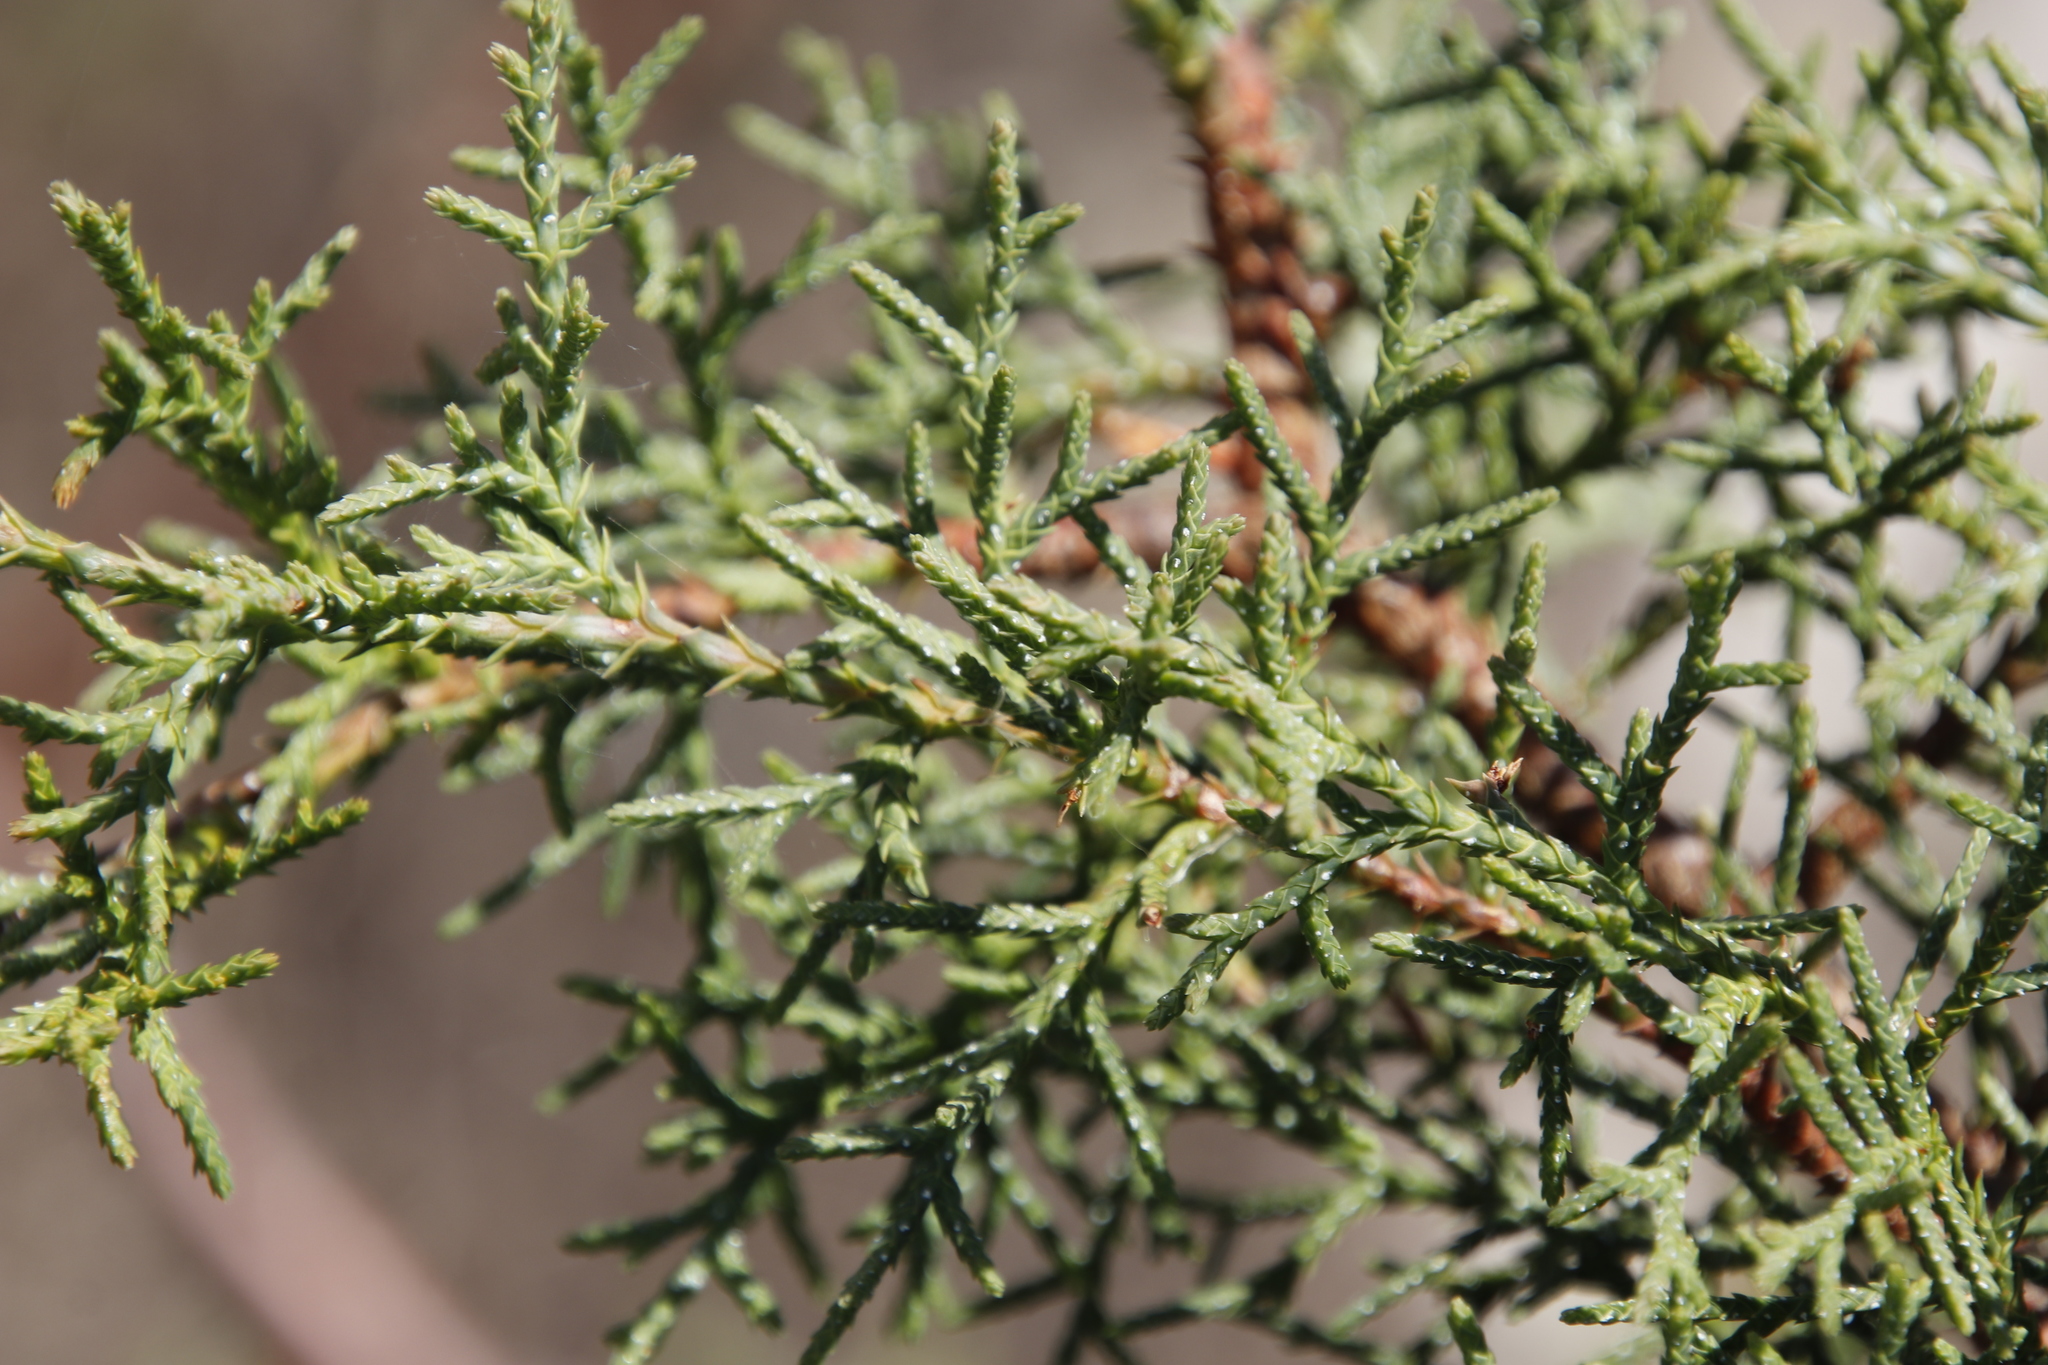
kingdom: Plantae
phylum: Tracheophyta
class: Pinopsida
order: Pinales
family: Cupressaceae
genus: Cupressus
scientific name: Cupressus lusitanica
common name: Mexican cypress
